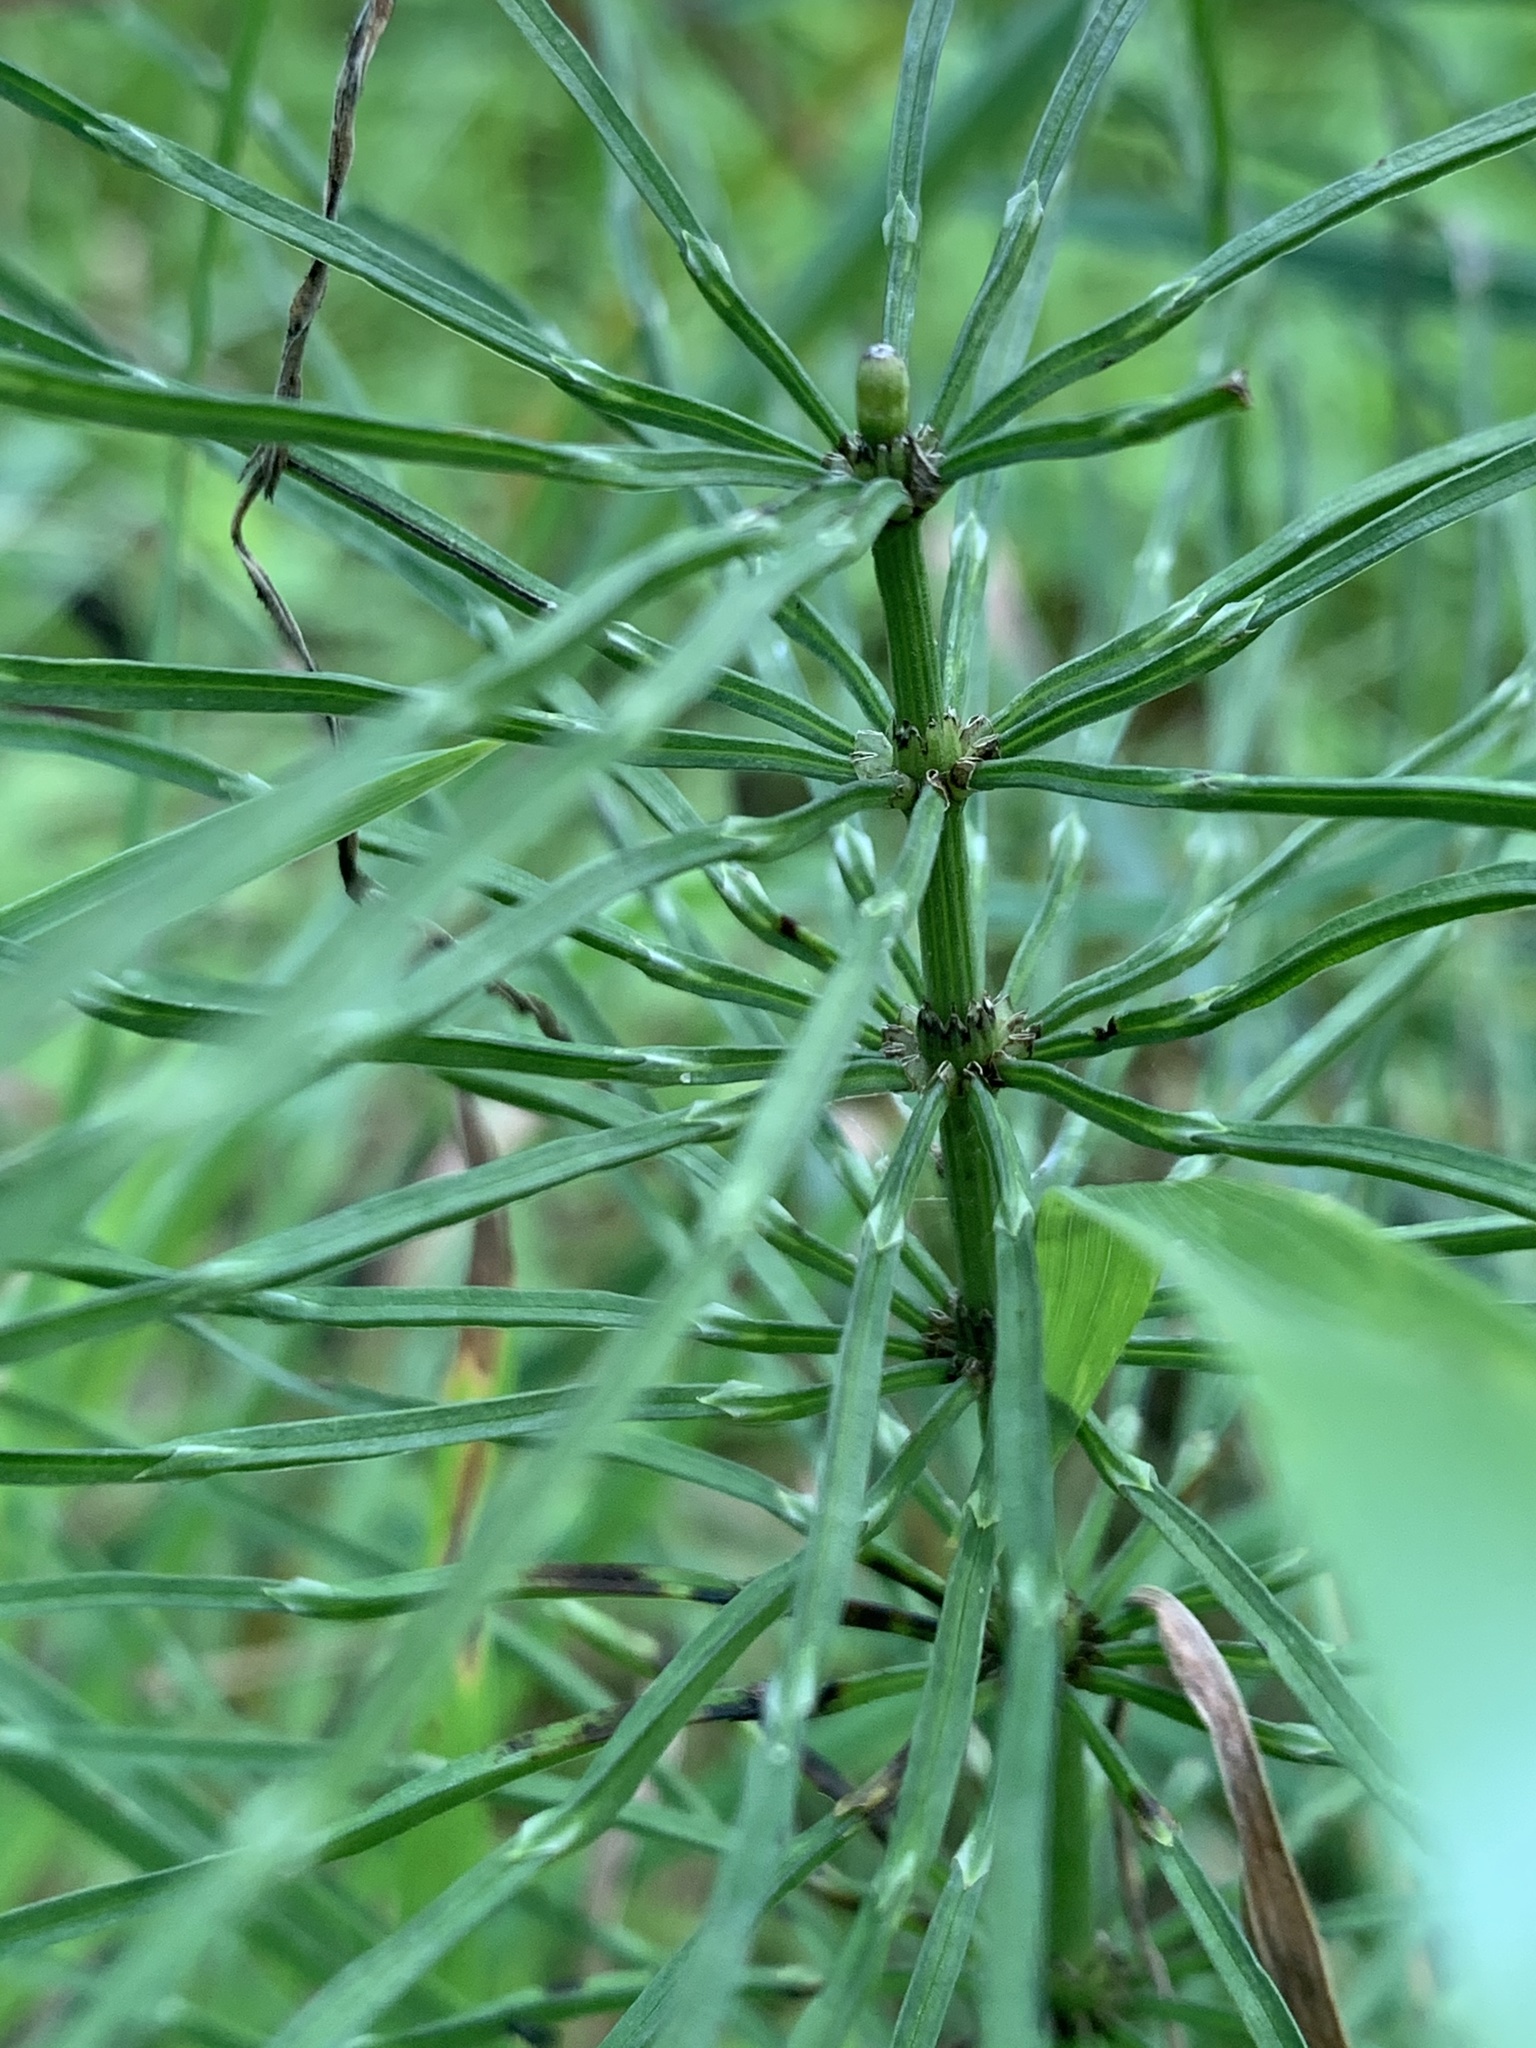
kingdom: Plantae
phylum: Tracheophyta
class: Polypodiopsida
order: Equisetales
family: Equisetaceae
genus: Equisetum
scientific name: Equisetum arvense
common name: Field horsetail
